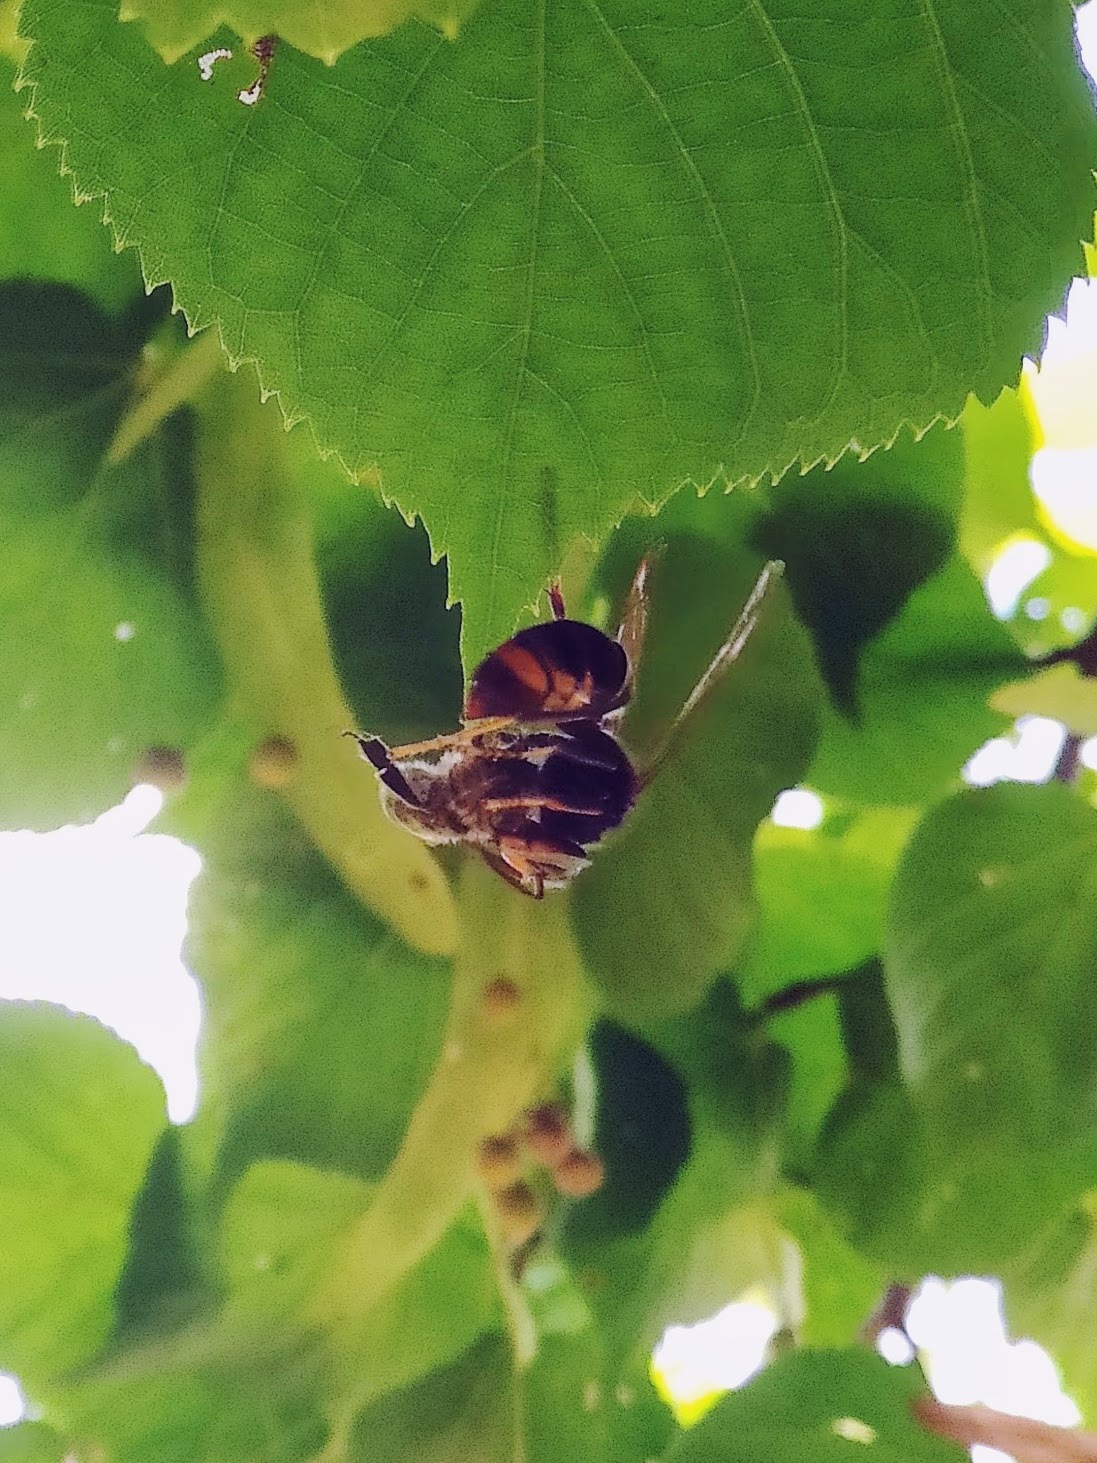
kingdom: Animalia
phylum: Arthropoda
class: Insecta
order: Hymenoptera
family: Vespidae
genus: Vespa
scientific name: Vespa velutina
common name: Asian hornet
